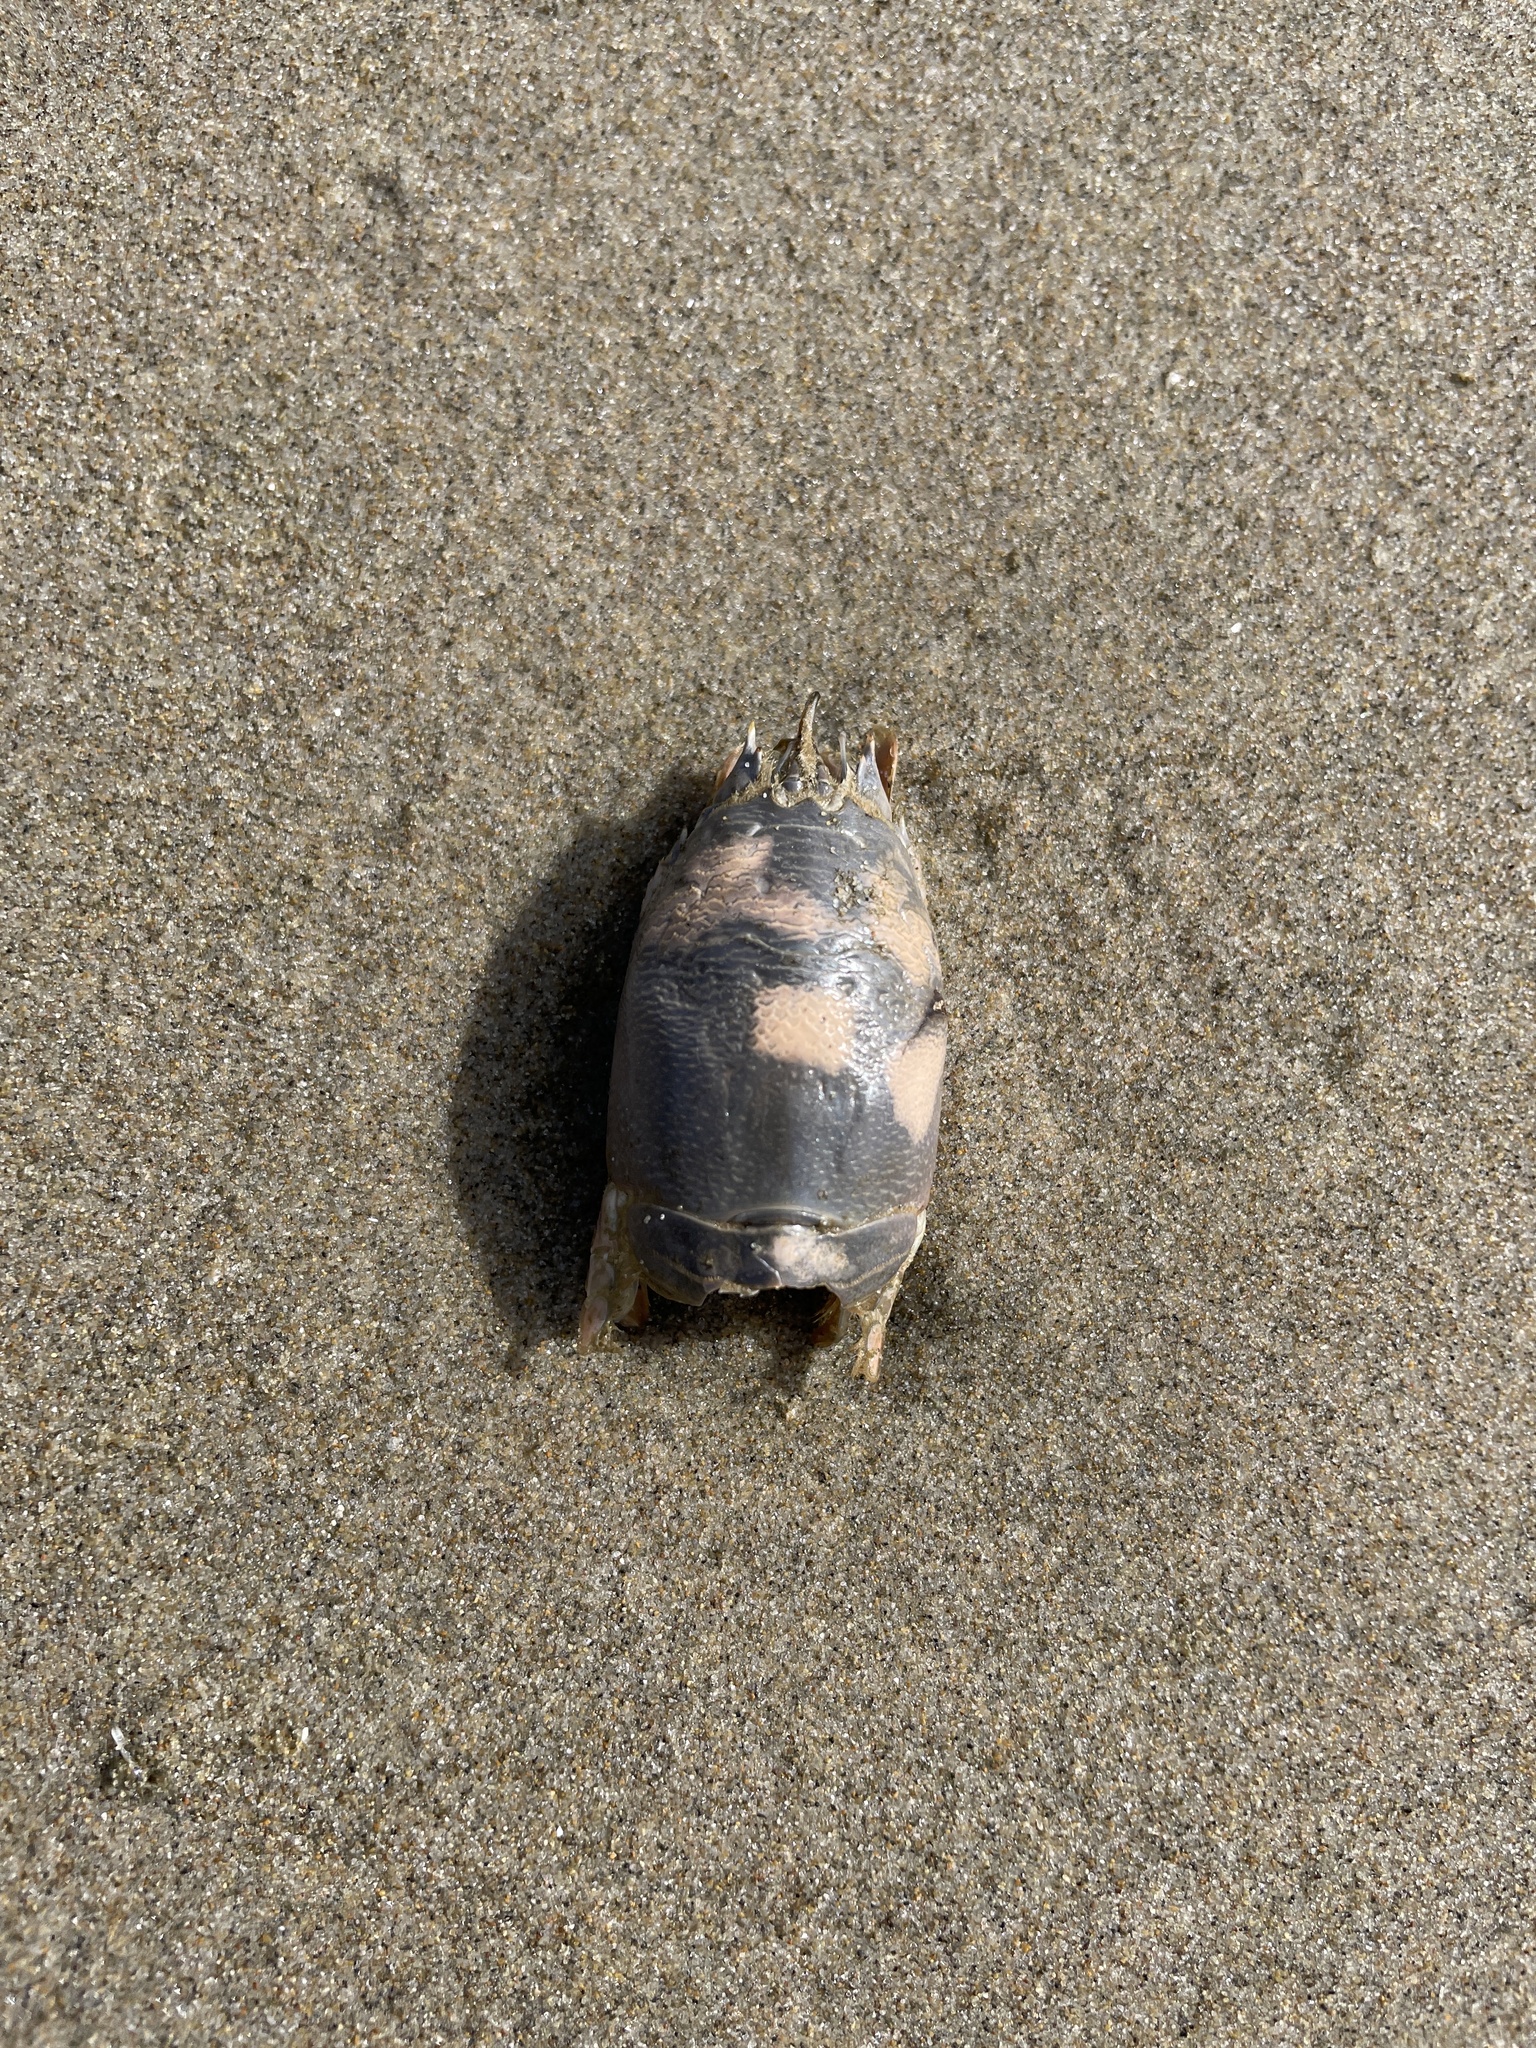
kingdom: Animalia
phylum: Arthropoda
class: Malacostraca
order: Decapoda
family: Hippidae
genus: Emerita
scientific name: Emerita analoga
